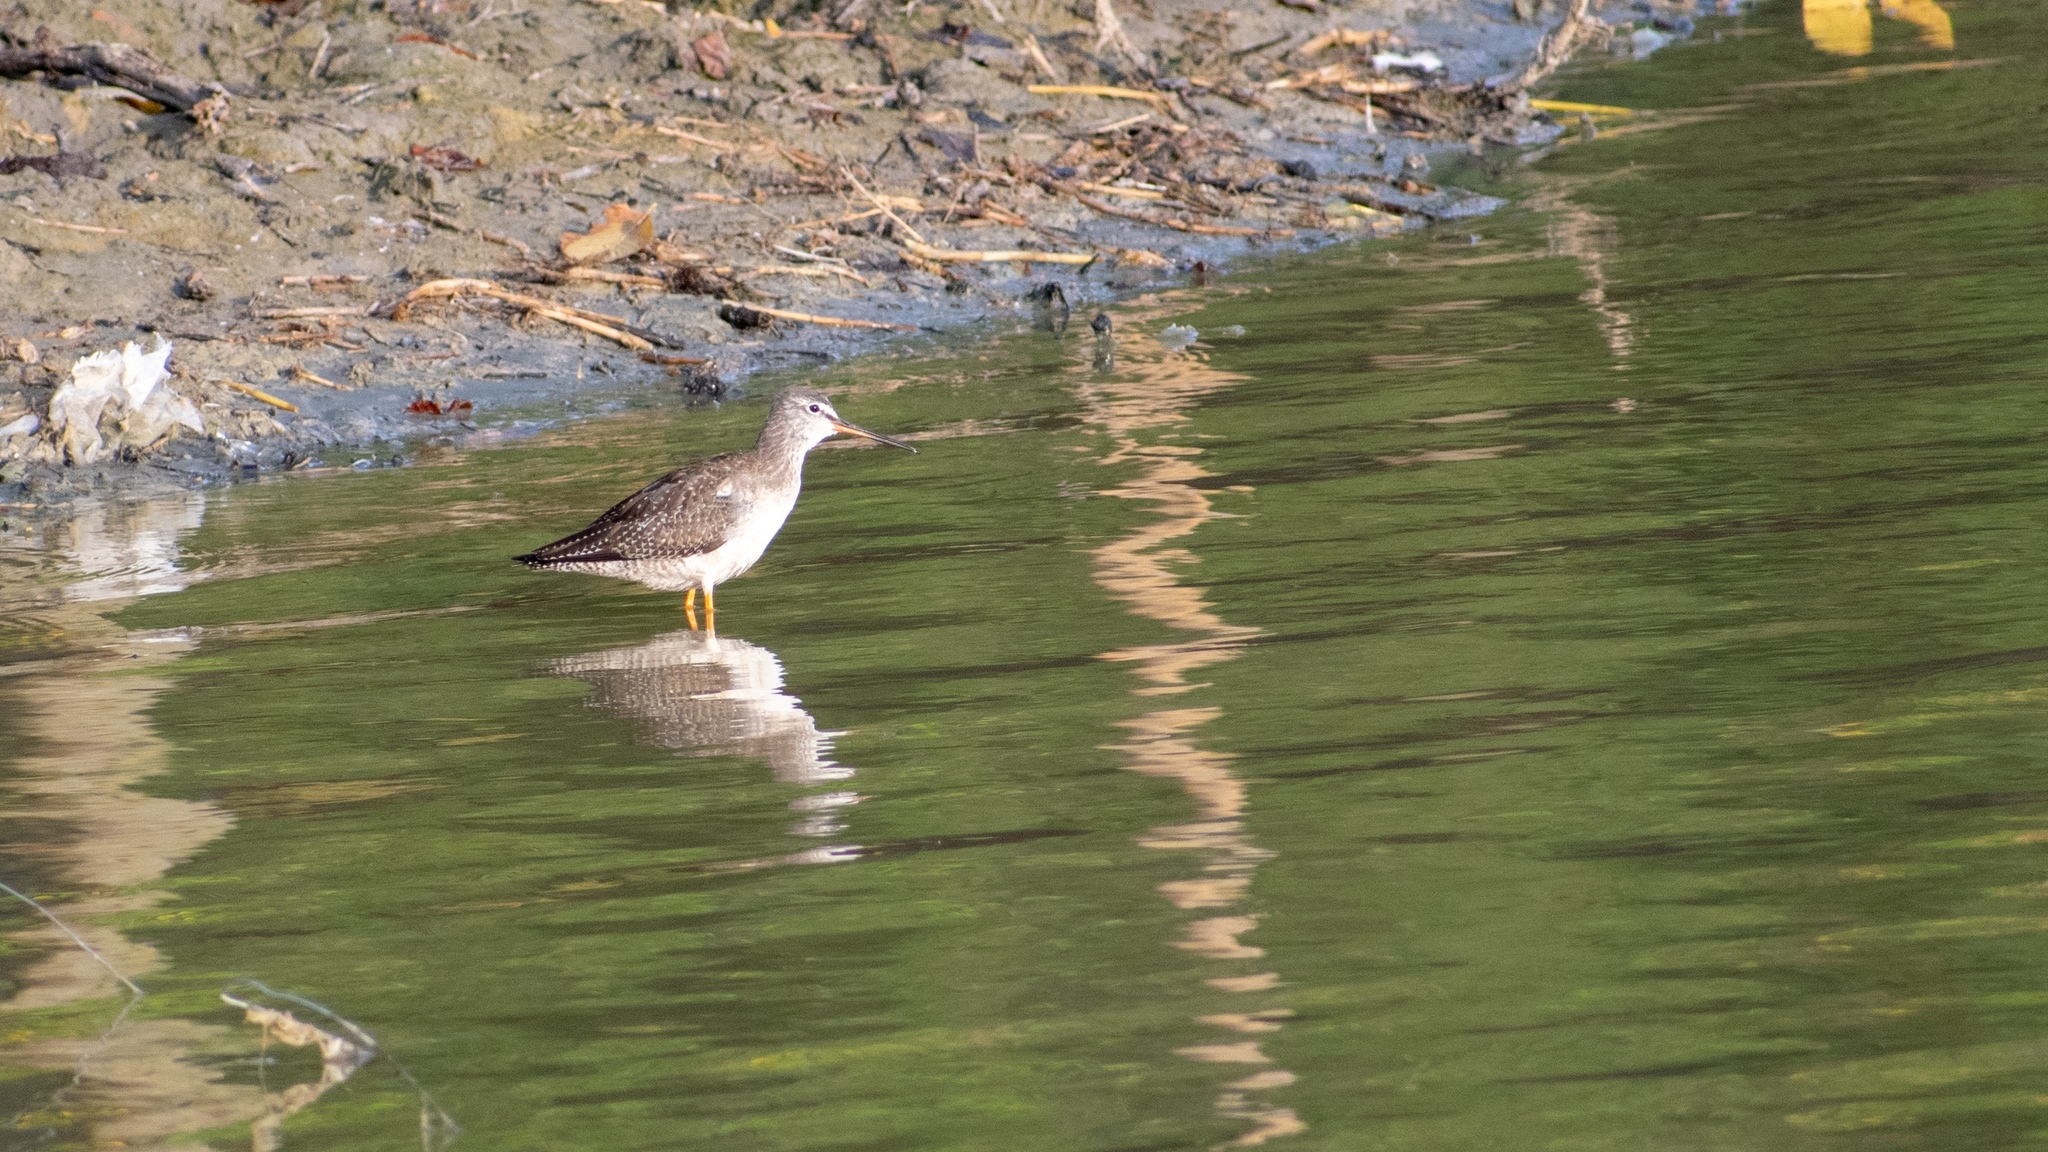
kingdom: Animalia
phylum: Chordata
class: Aves
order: Charadriiformes
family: Scolopacidae
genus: Tringa
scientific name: Tringa totanus
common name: Common redshank
